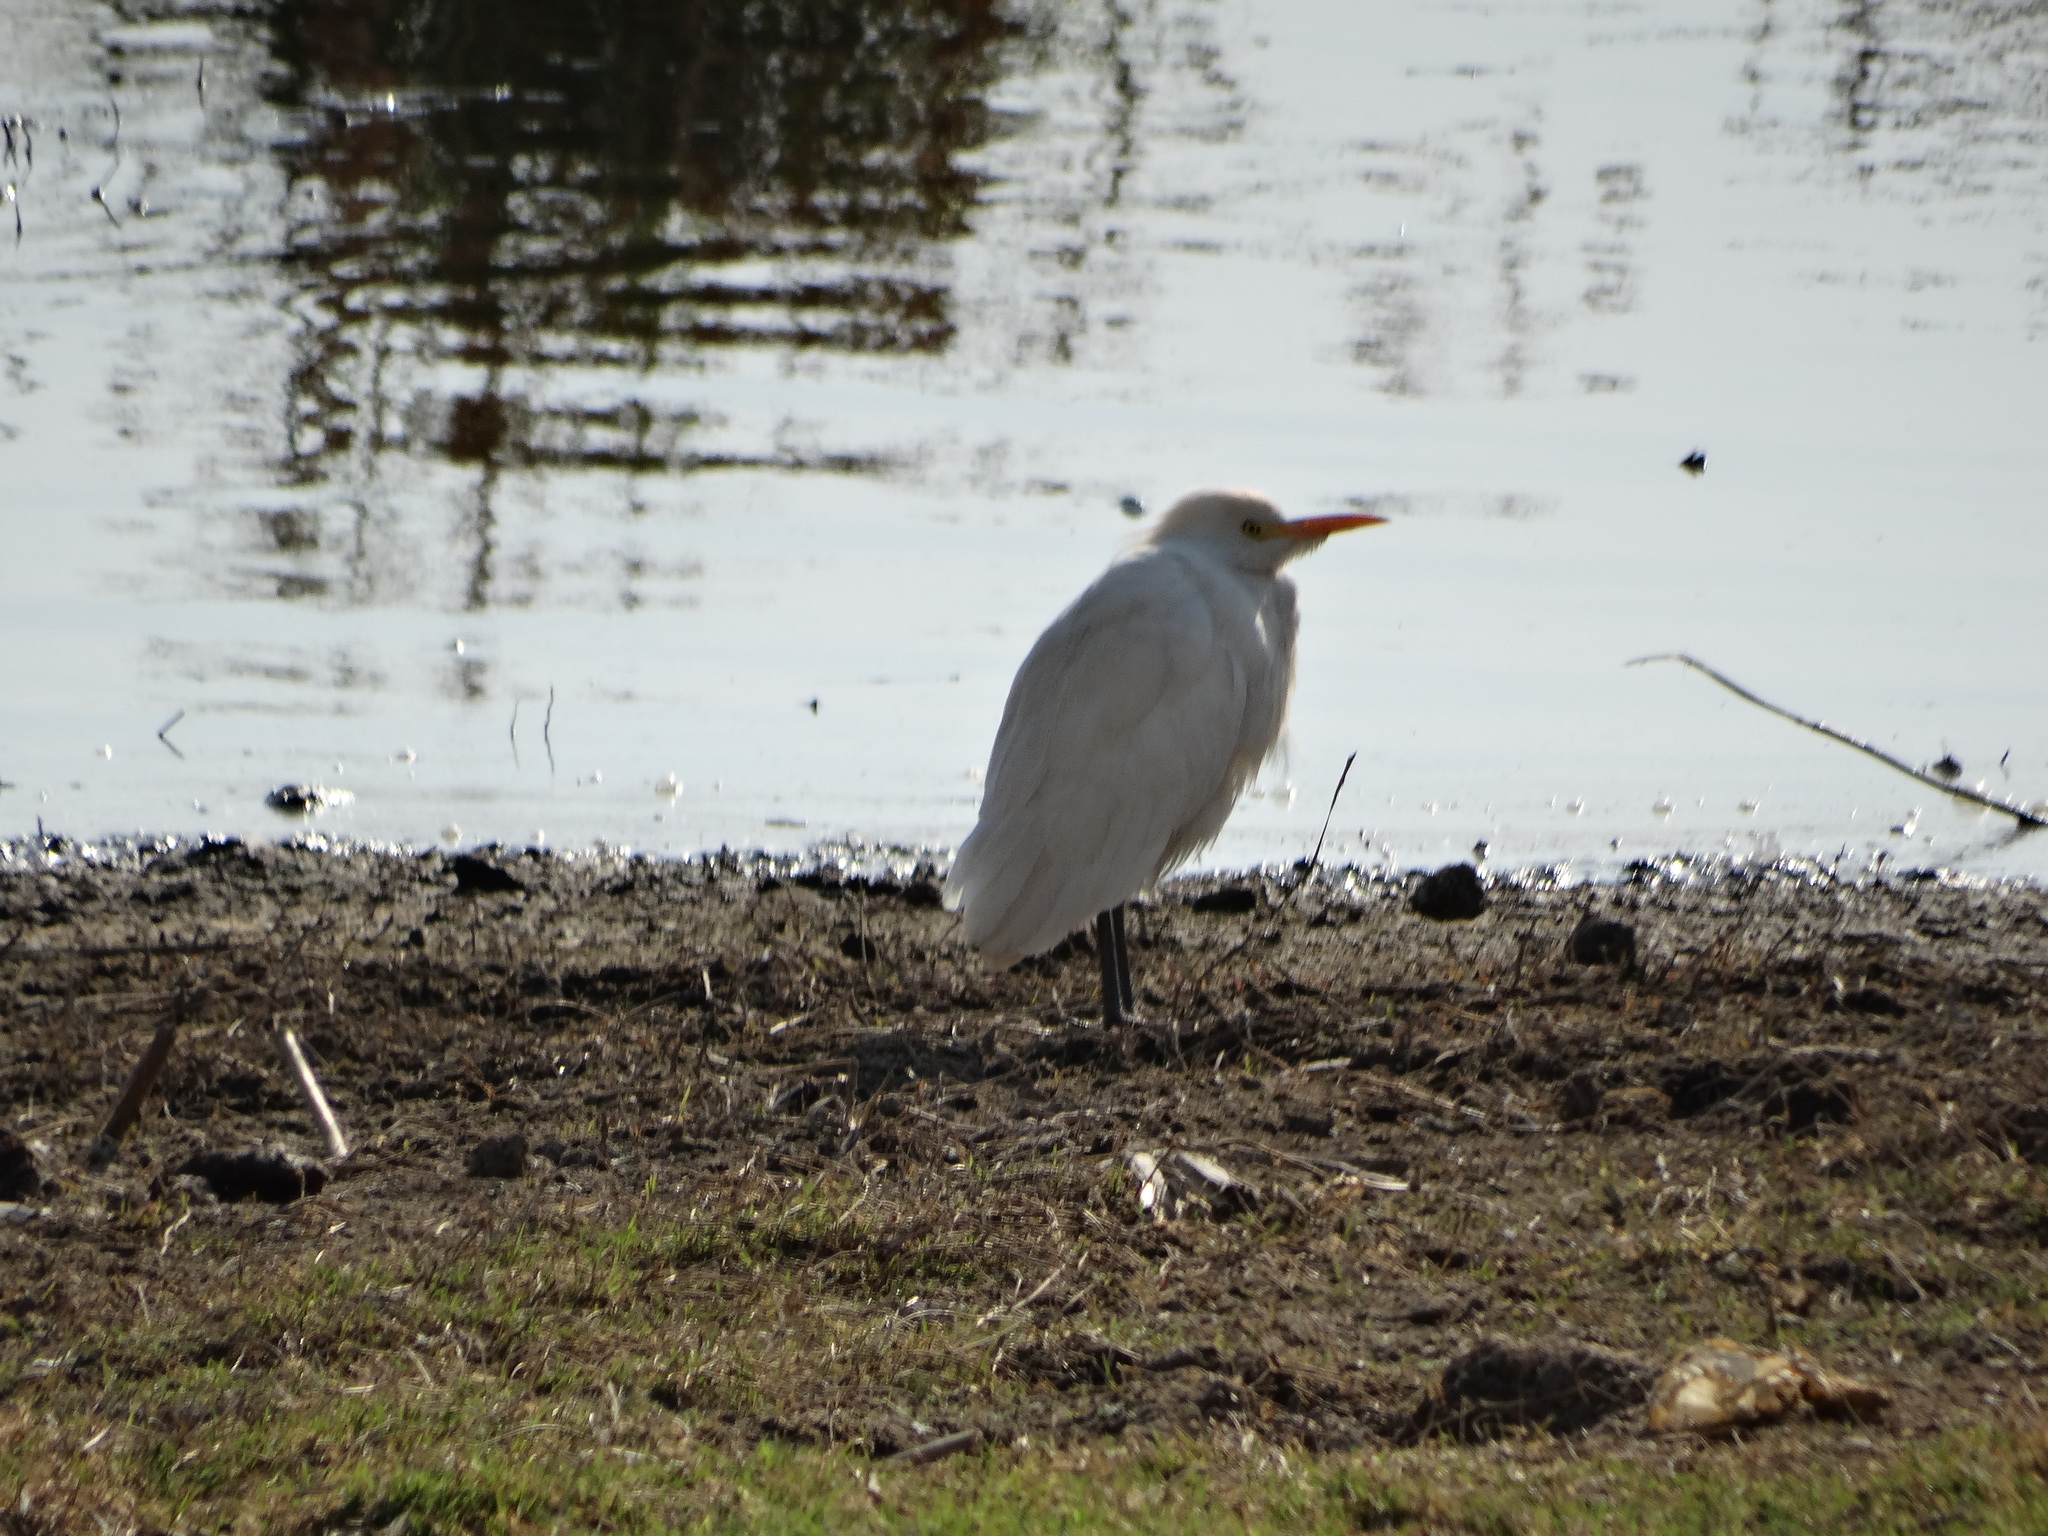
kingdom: Animalia
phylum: Chordata
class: Aves
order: Pelecaniformes
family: Ardeidae
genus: Bubulcus
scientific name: Bubulcus ibis
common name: Cattle egret
